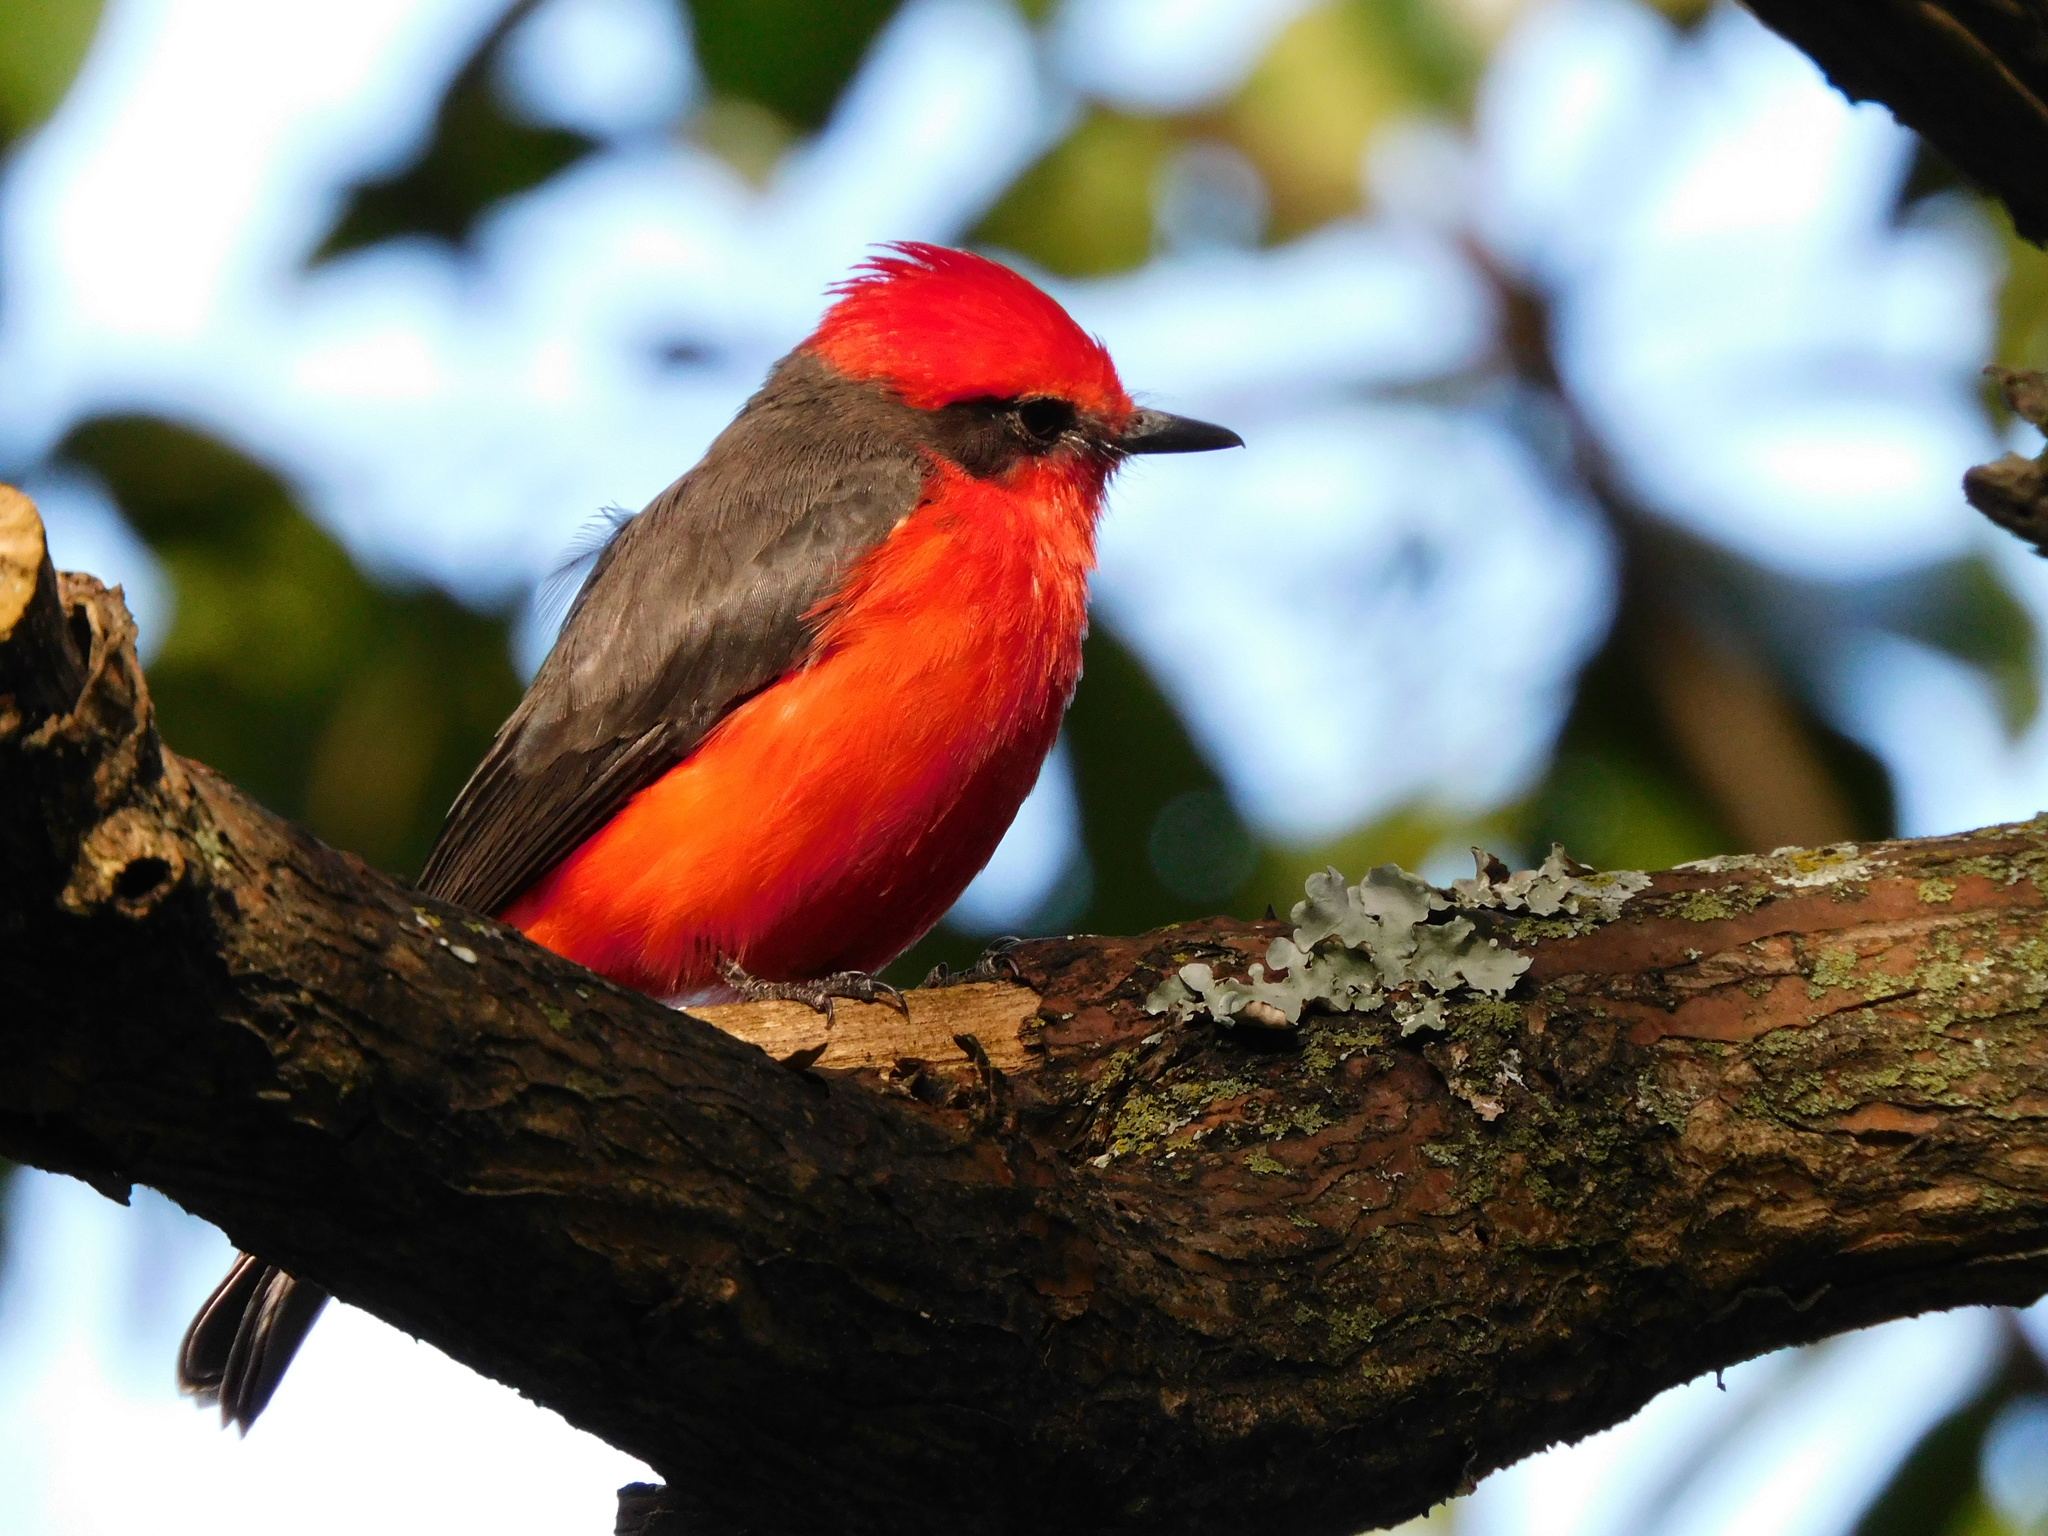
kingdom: Animalia
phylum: Chordata
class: Aves
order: Passeriformes
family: Tyrannidae
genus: Pyrocephalus
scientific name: Pyrocephalus rubinus
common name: Vermilion flycatcher
